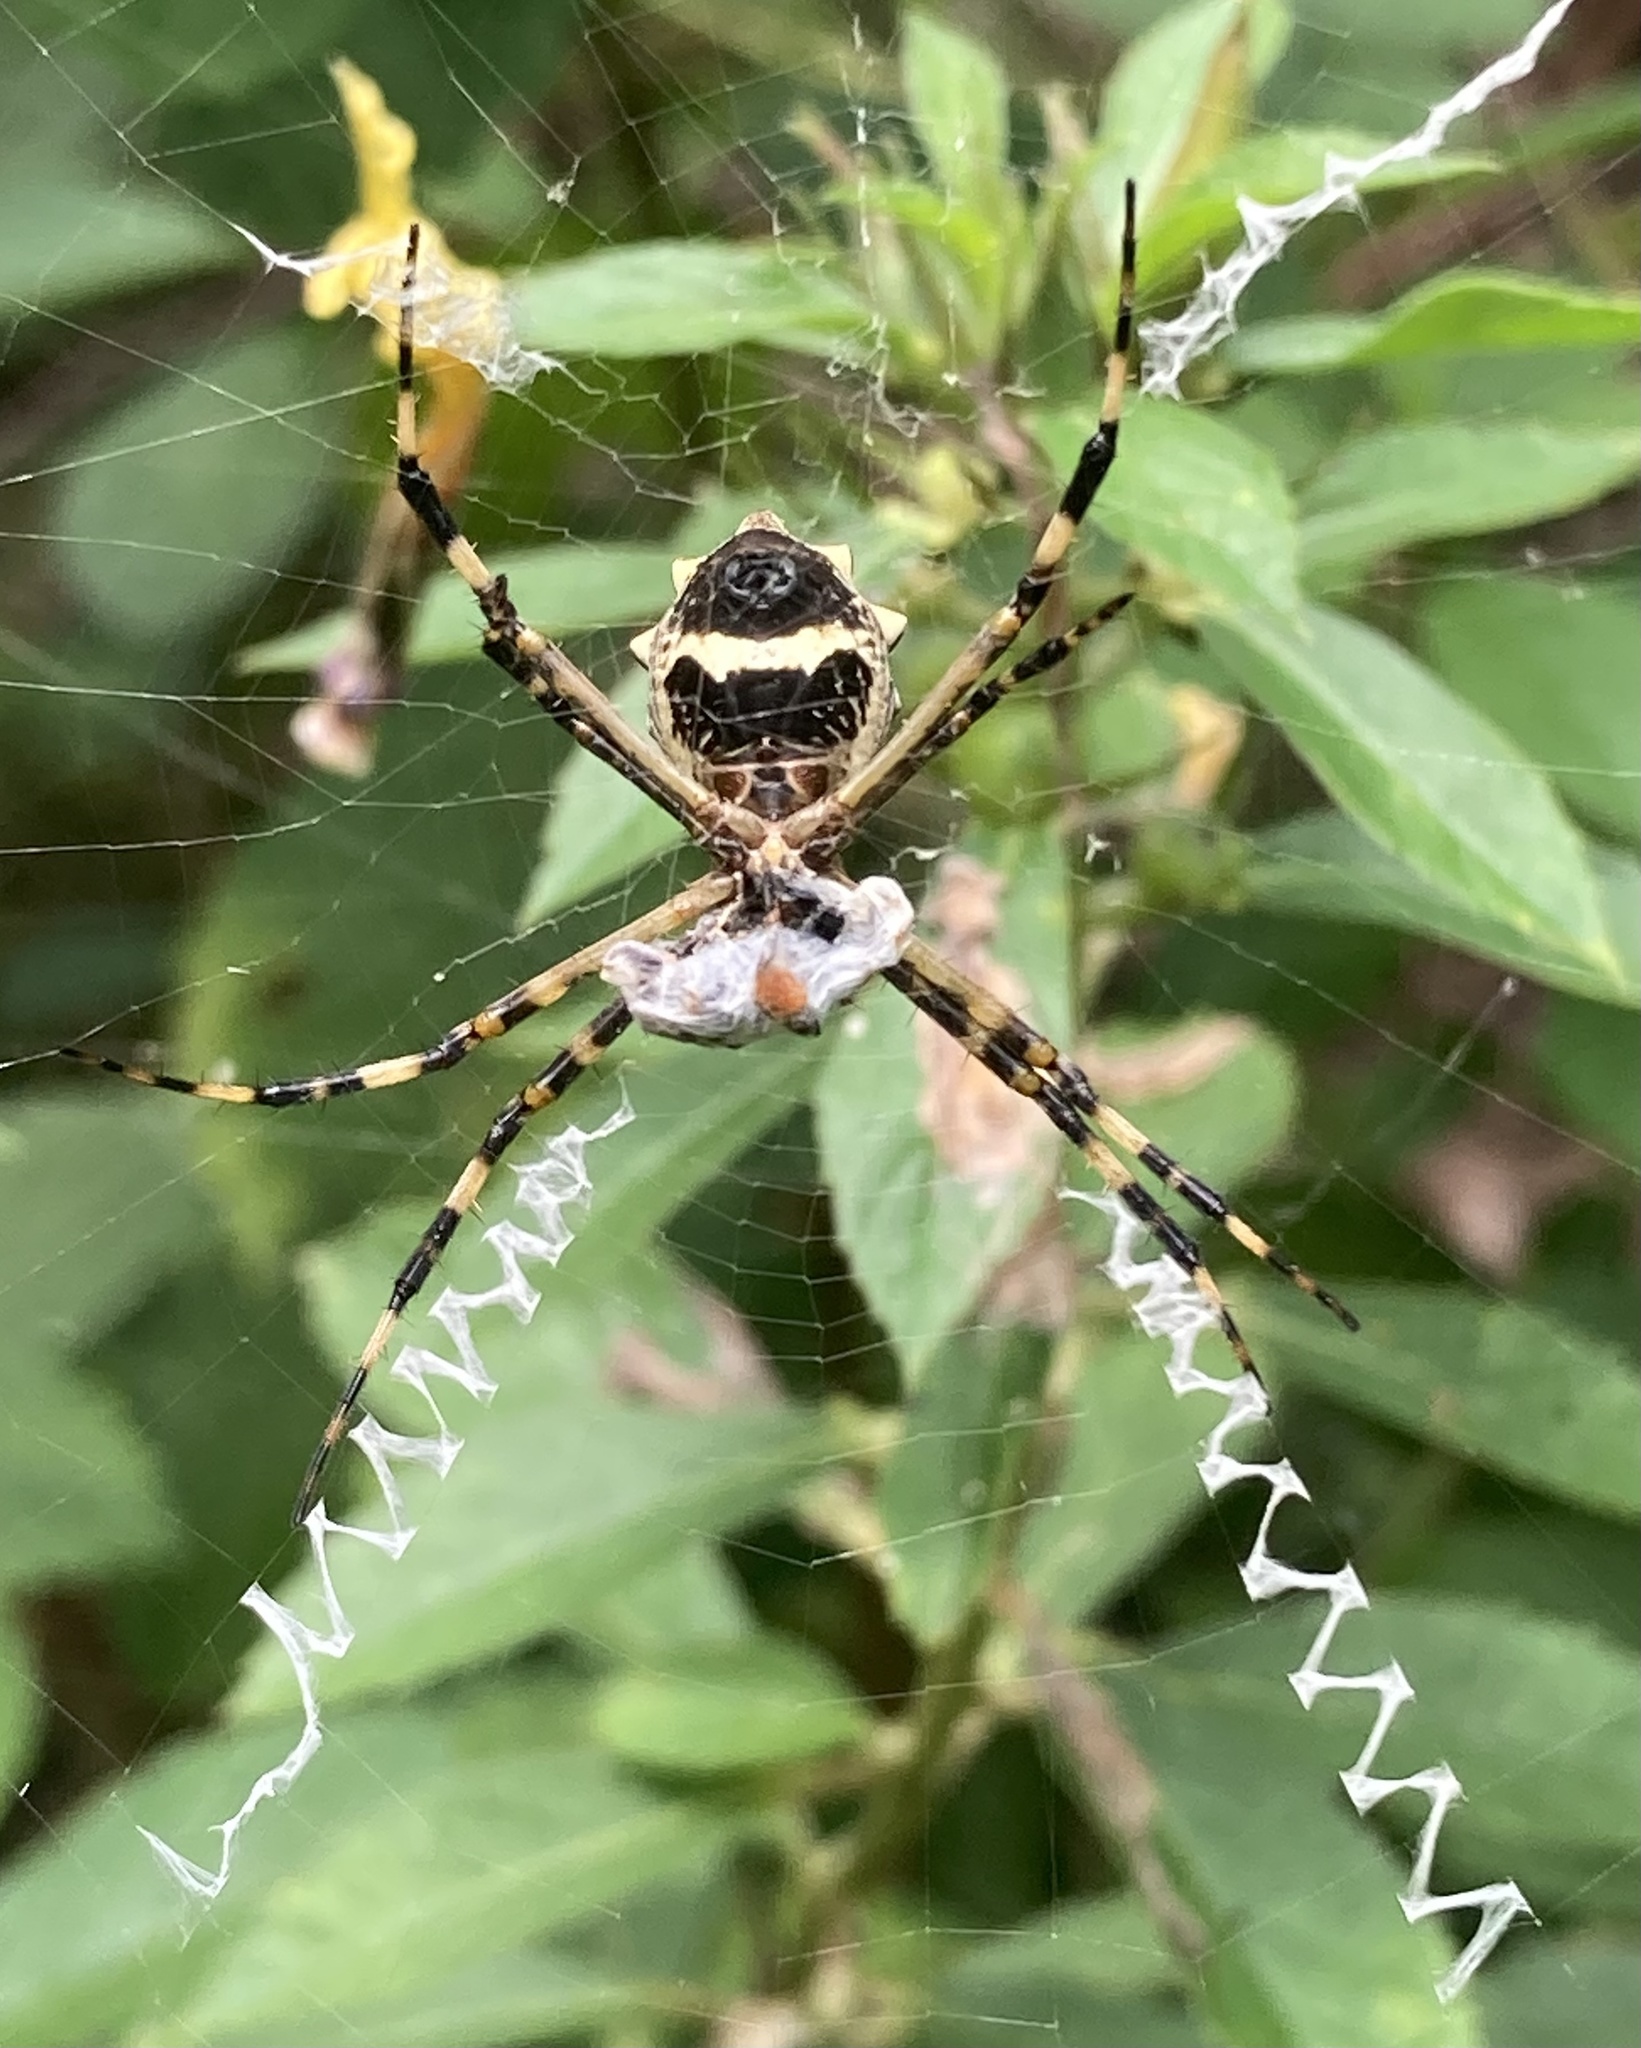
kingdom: Animalia
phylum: Arthropoda
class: Arachnida
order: Araneae
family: Araneidae
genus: Argiope
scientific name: Argiope argentata
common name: Orb weavers
